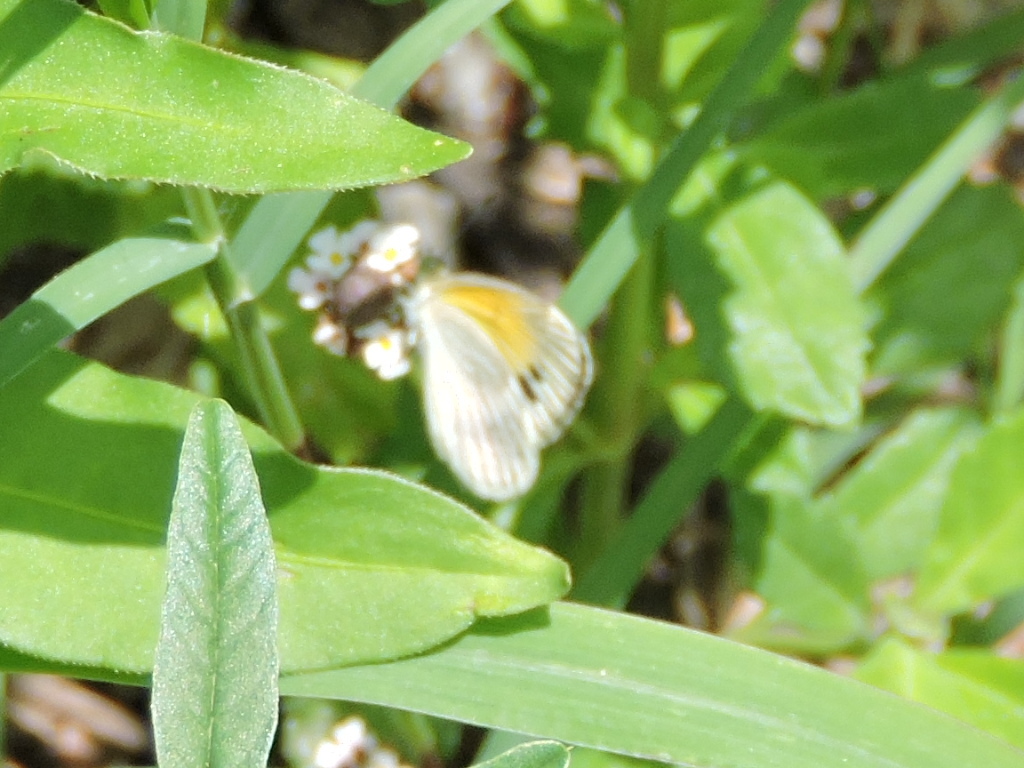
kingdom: Animalia
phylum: Arthropoda
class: Insecta
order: Lepidoptera
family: Pieridae
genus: Nathalis
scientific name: Nathalis iole
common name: Dainty sulphur
